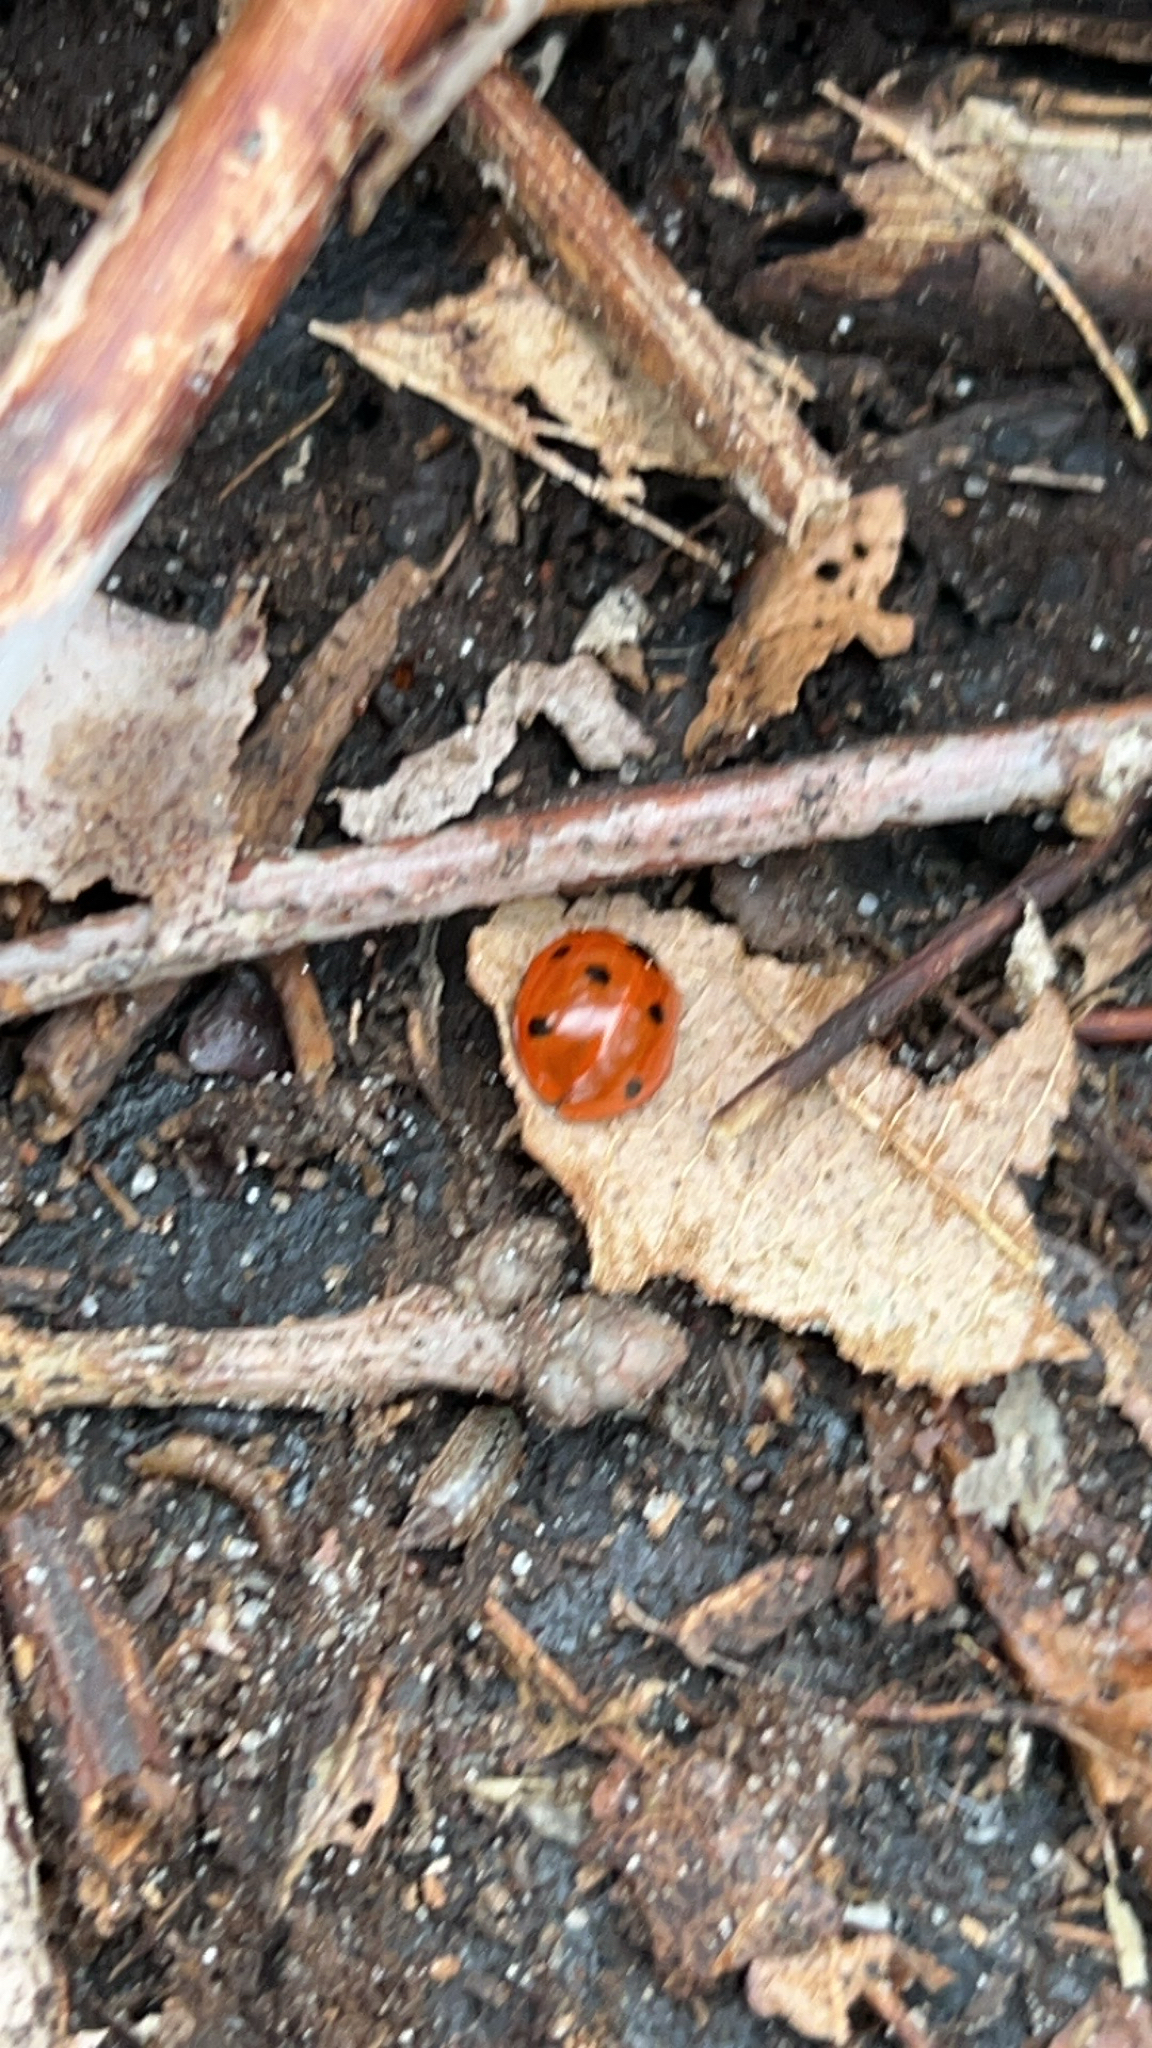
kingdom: Animalia
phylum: Arthropoda
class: Insecta
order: Coleoptera
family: Coccinellidae
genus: Coccinella
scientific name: Coccinella septempunctata
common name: Sevenspotted lady beetle
